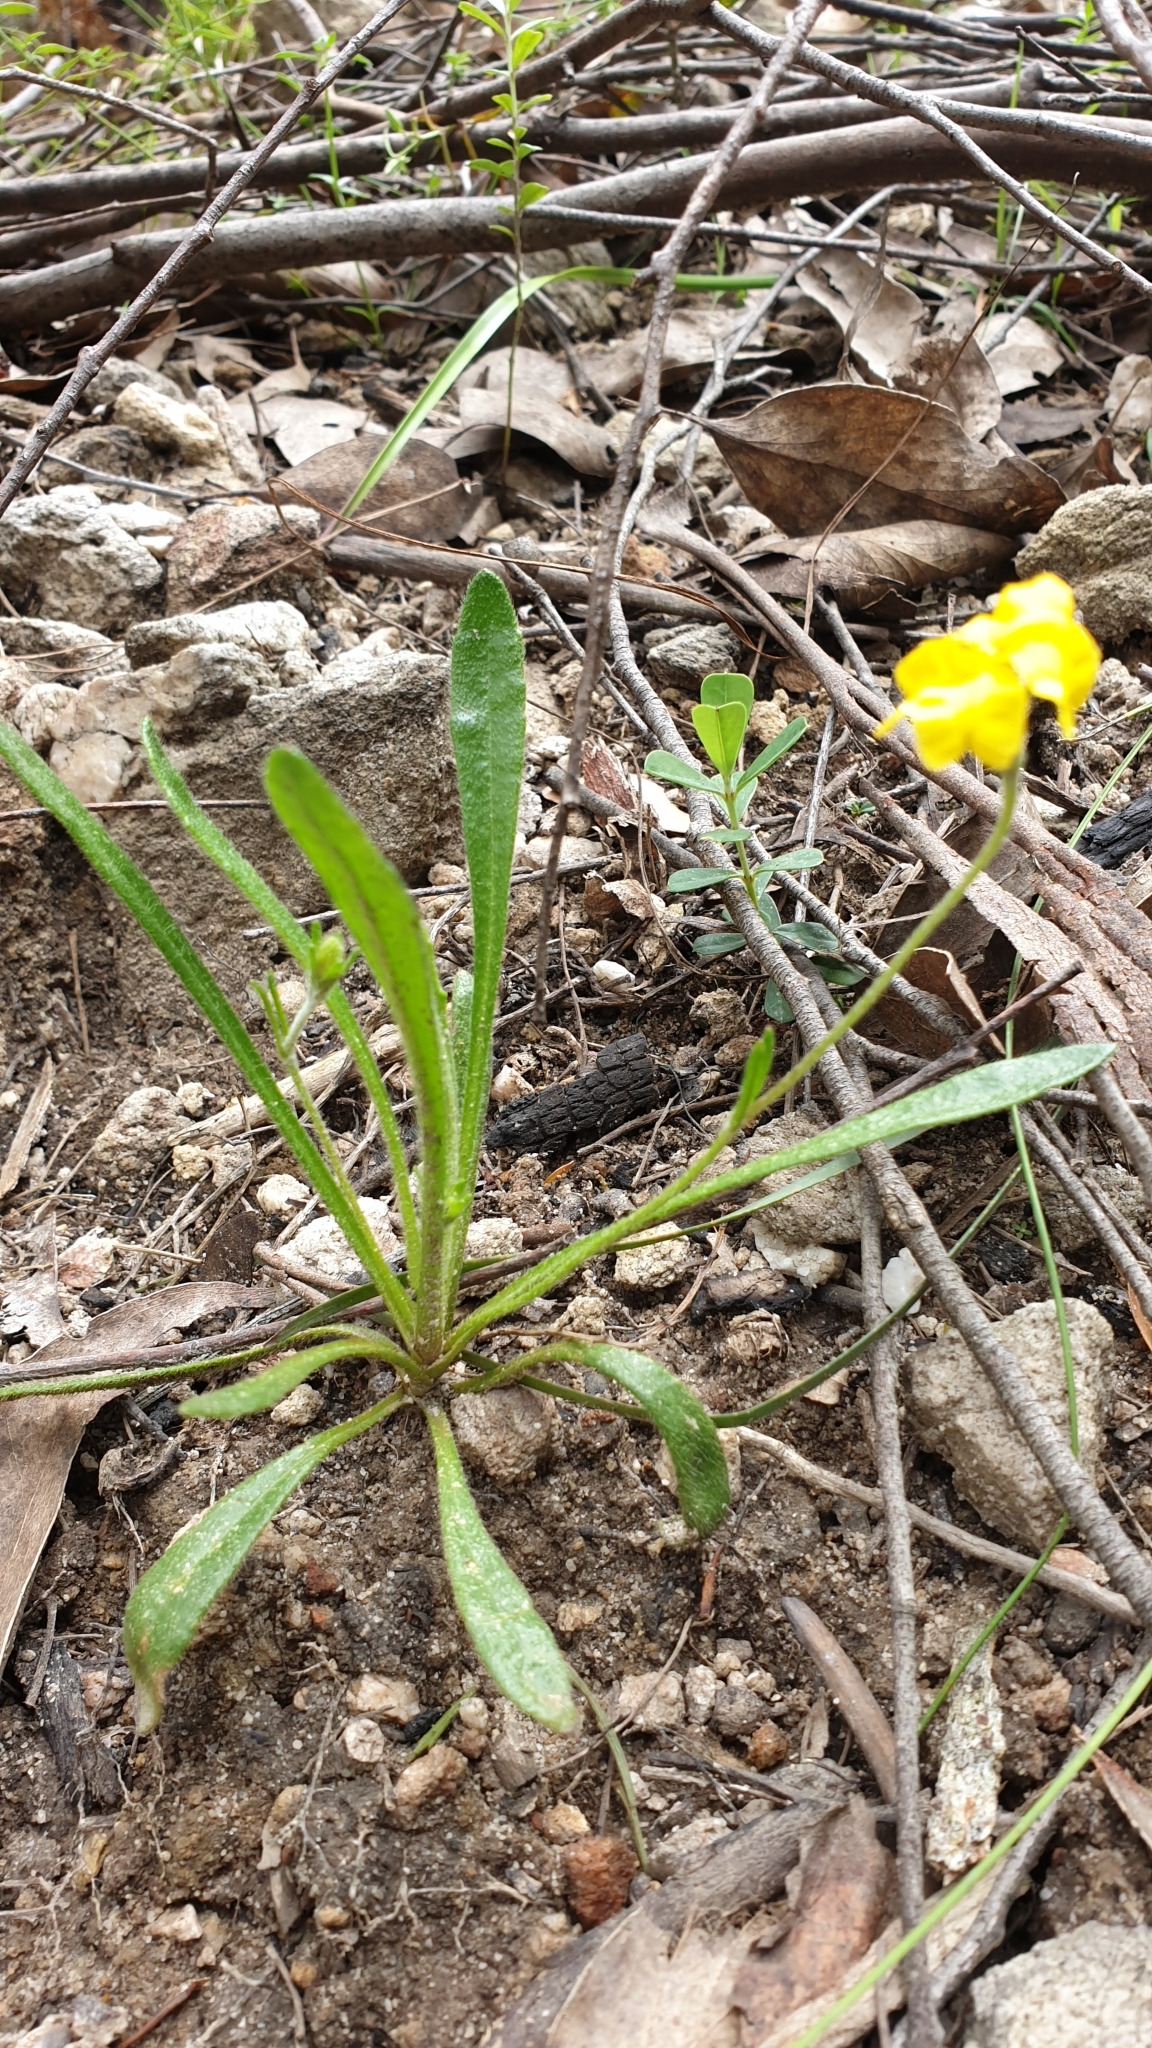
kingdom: Plantae
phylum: Tracheophyta
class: Magnoliopsida
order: Asterales
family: Goodeniaceae
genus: Goodenia
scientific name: Goodenia geniculata
